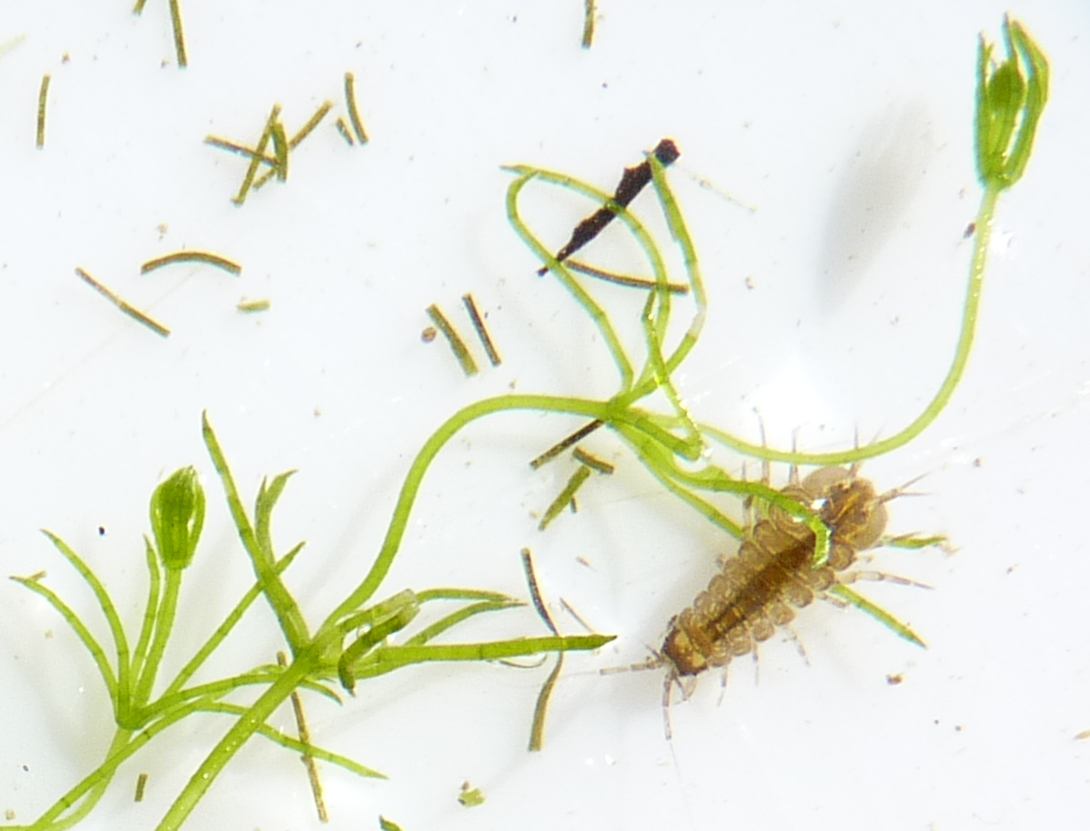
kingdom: Plantae
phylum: Charophyta
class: Charophyceae
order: Charales
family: Characeae
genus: Chara
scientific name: Chara virgata
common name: Delicate stonewort
